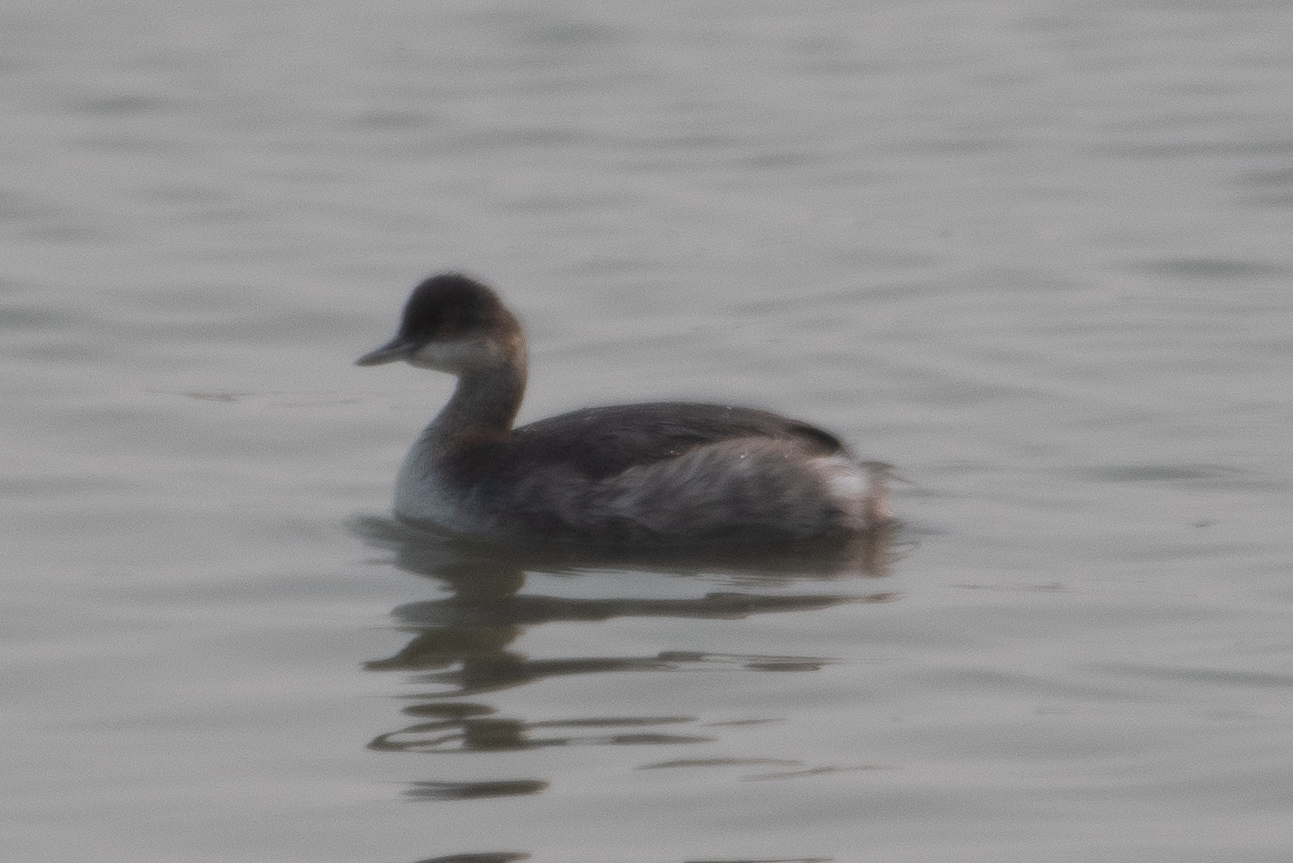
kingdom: Animalia
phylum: Chordata
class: Aves
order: Podicipediformes
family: Podicipedidae
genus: Podiceps
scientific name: Podiceps nigricollis
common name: Black-necked grebe
